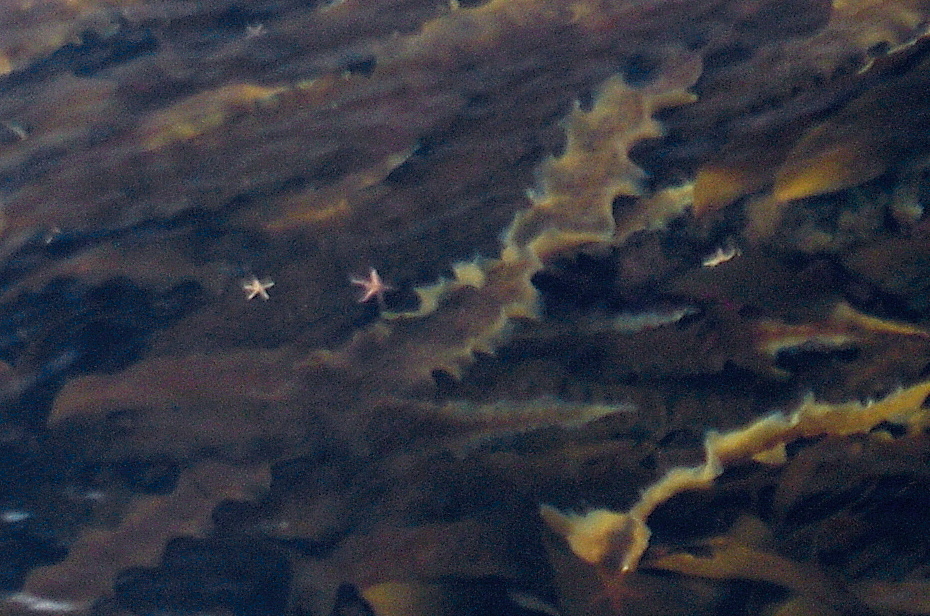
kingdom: Animalia
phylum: Echinodermata
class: Asteroidea
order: Forcipulatida
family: Asteriidae
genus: Asterias
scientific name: Asterias rubens
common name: Common starfish
